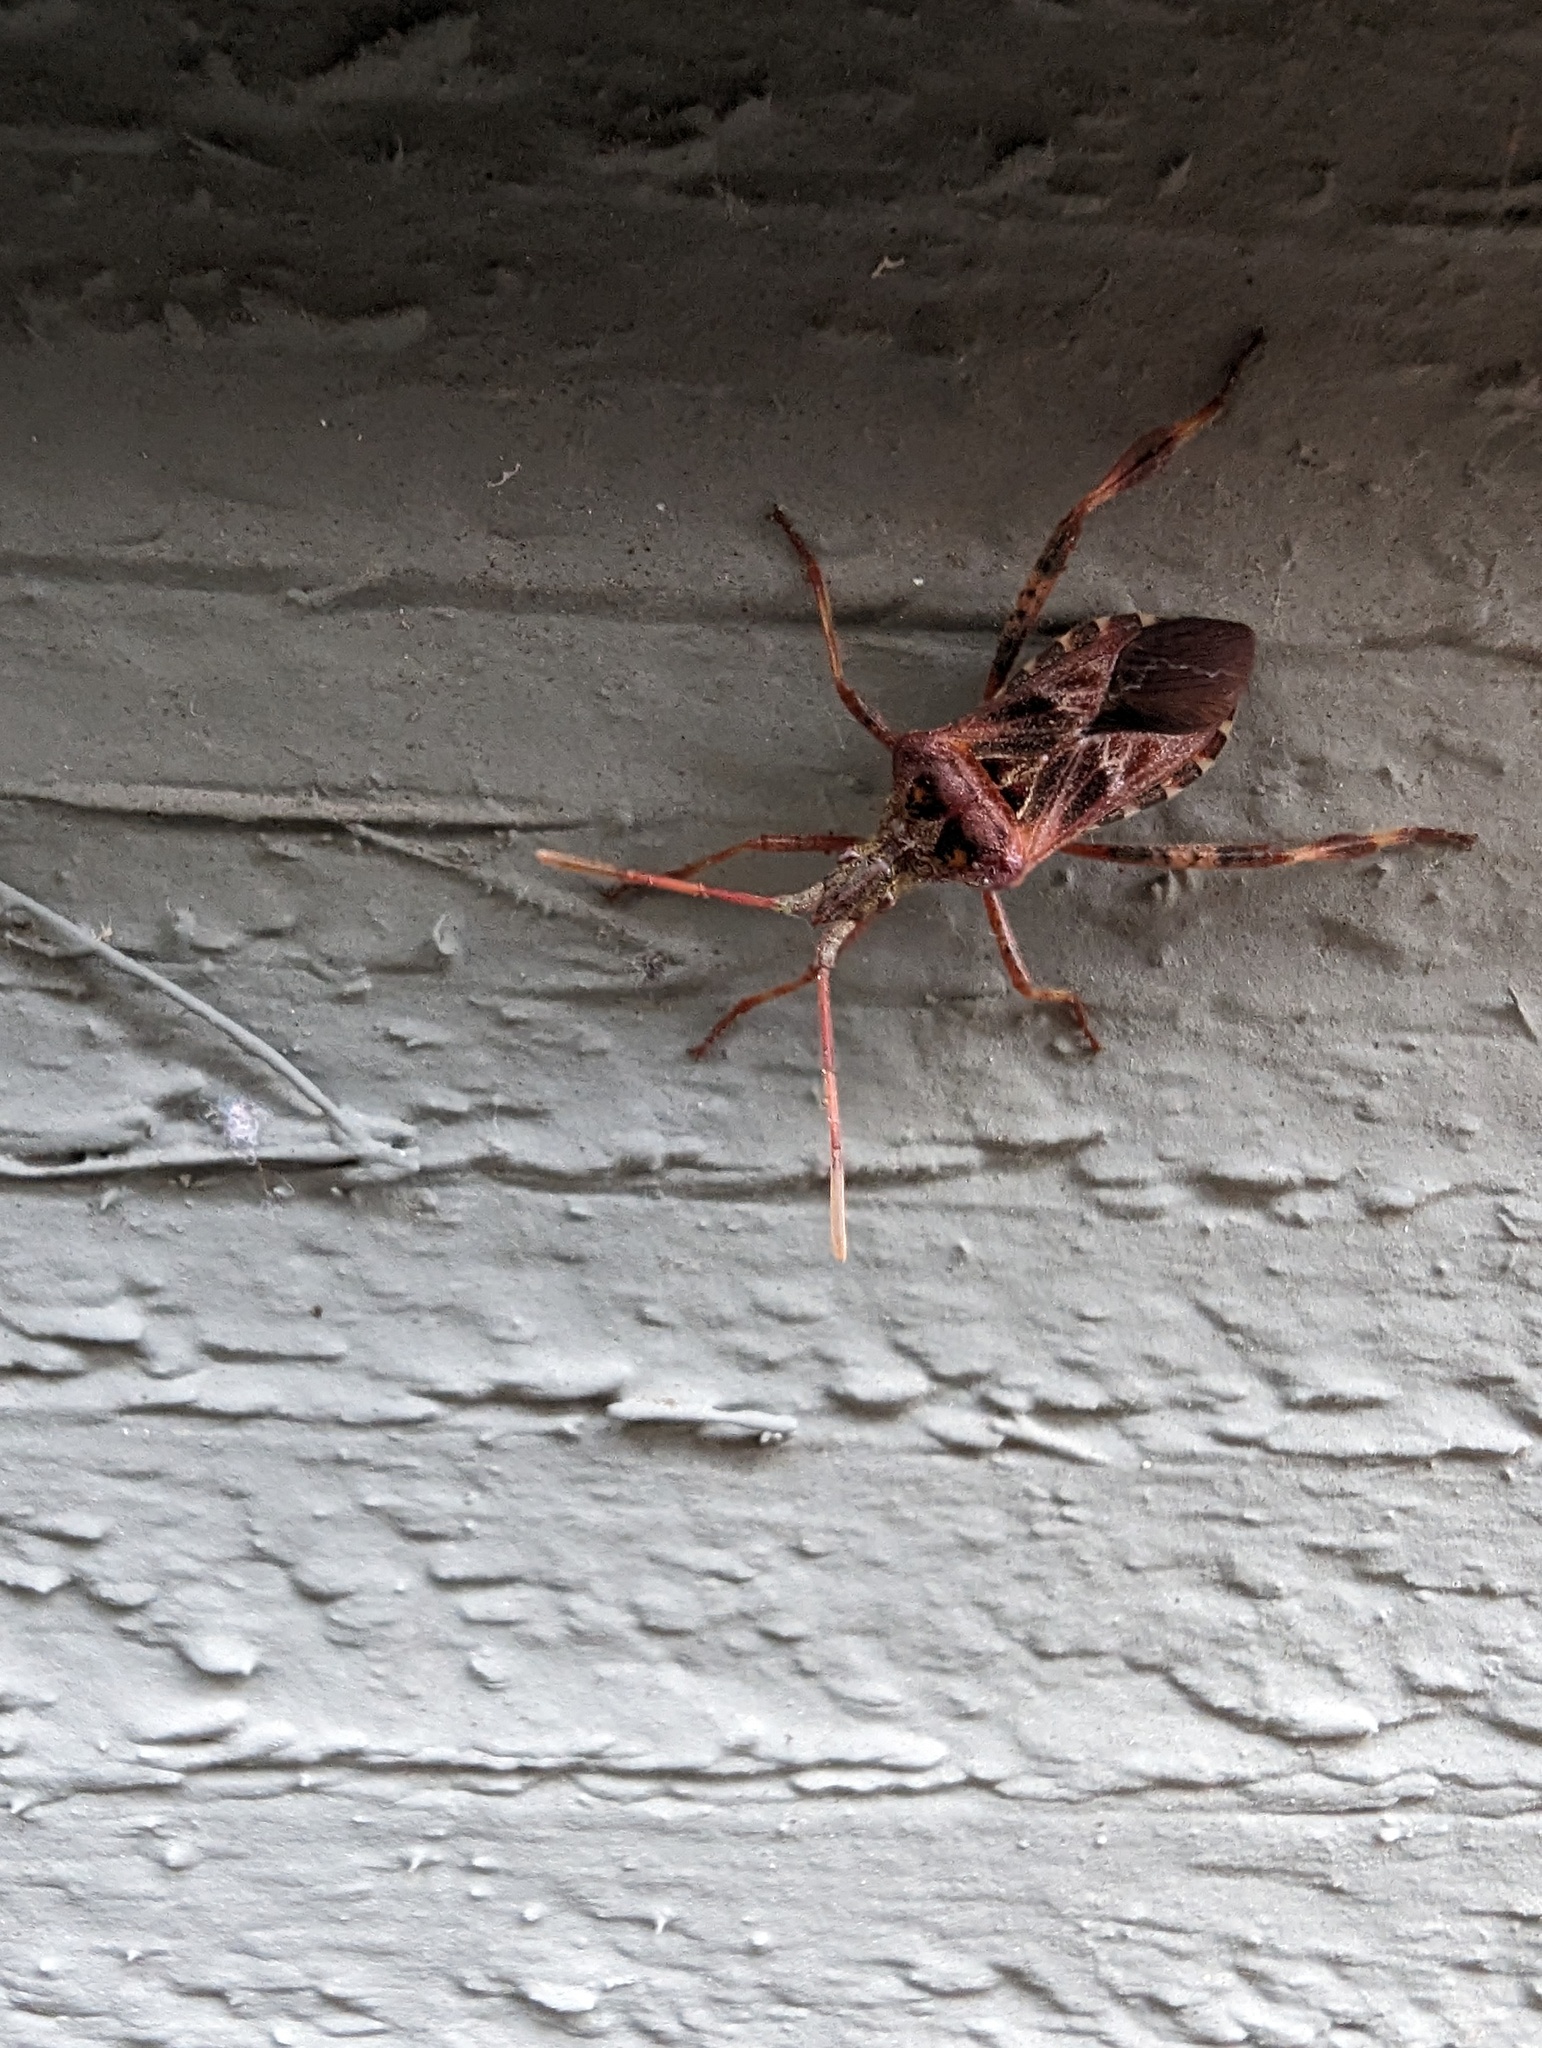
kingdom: Animalia
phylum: Arthropoda
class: Insecta
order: Hemiptera
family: Coreidae
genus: Leptoglossus
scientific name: Leptoglossus occidentalis
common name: Western conifer-seed bug
